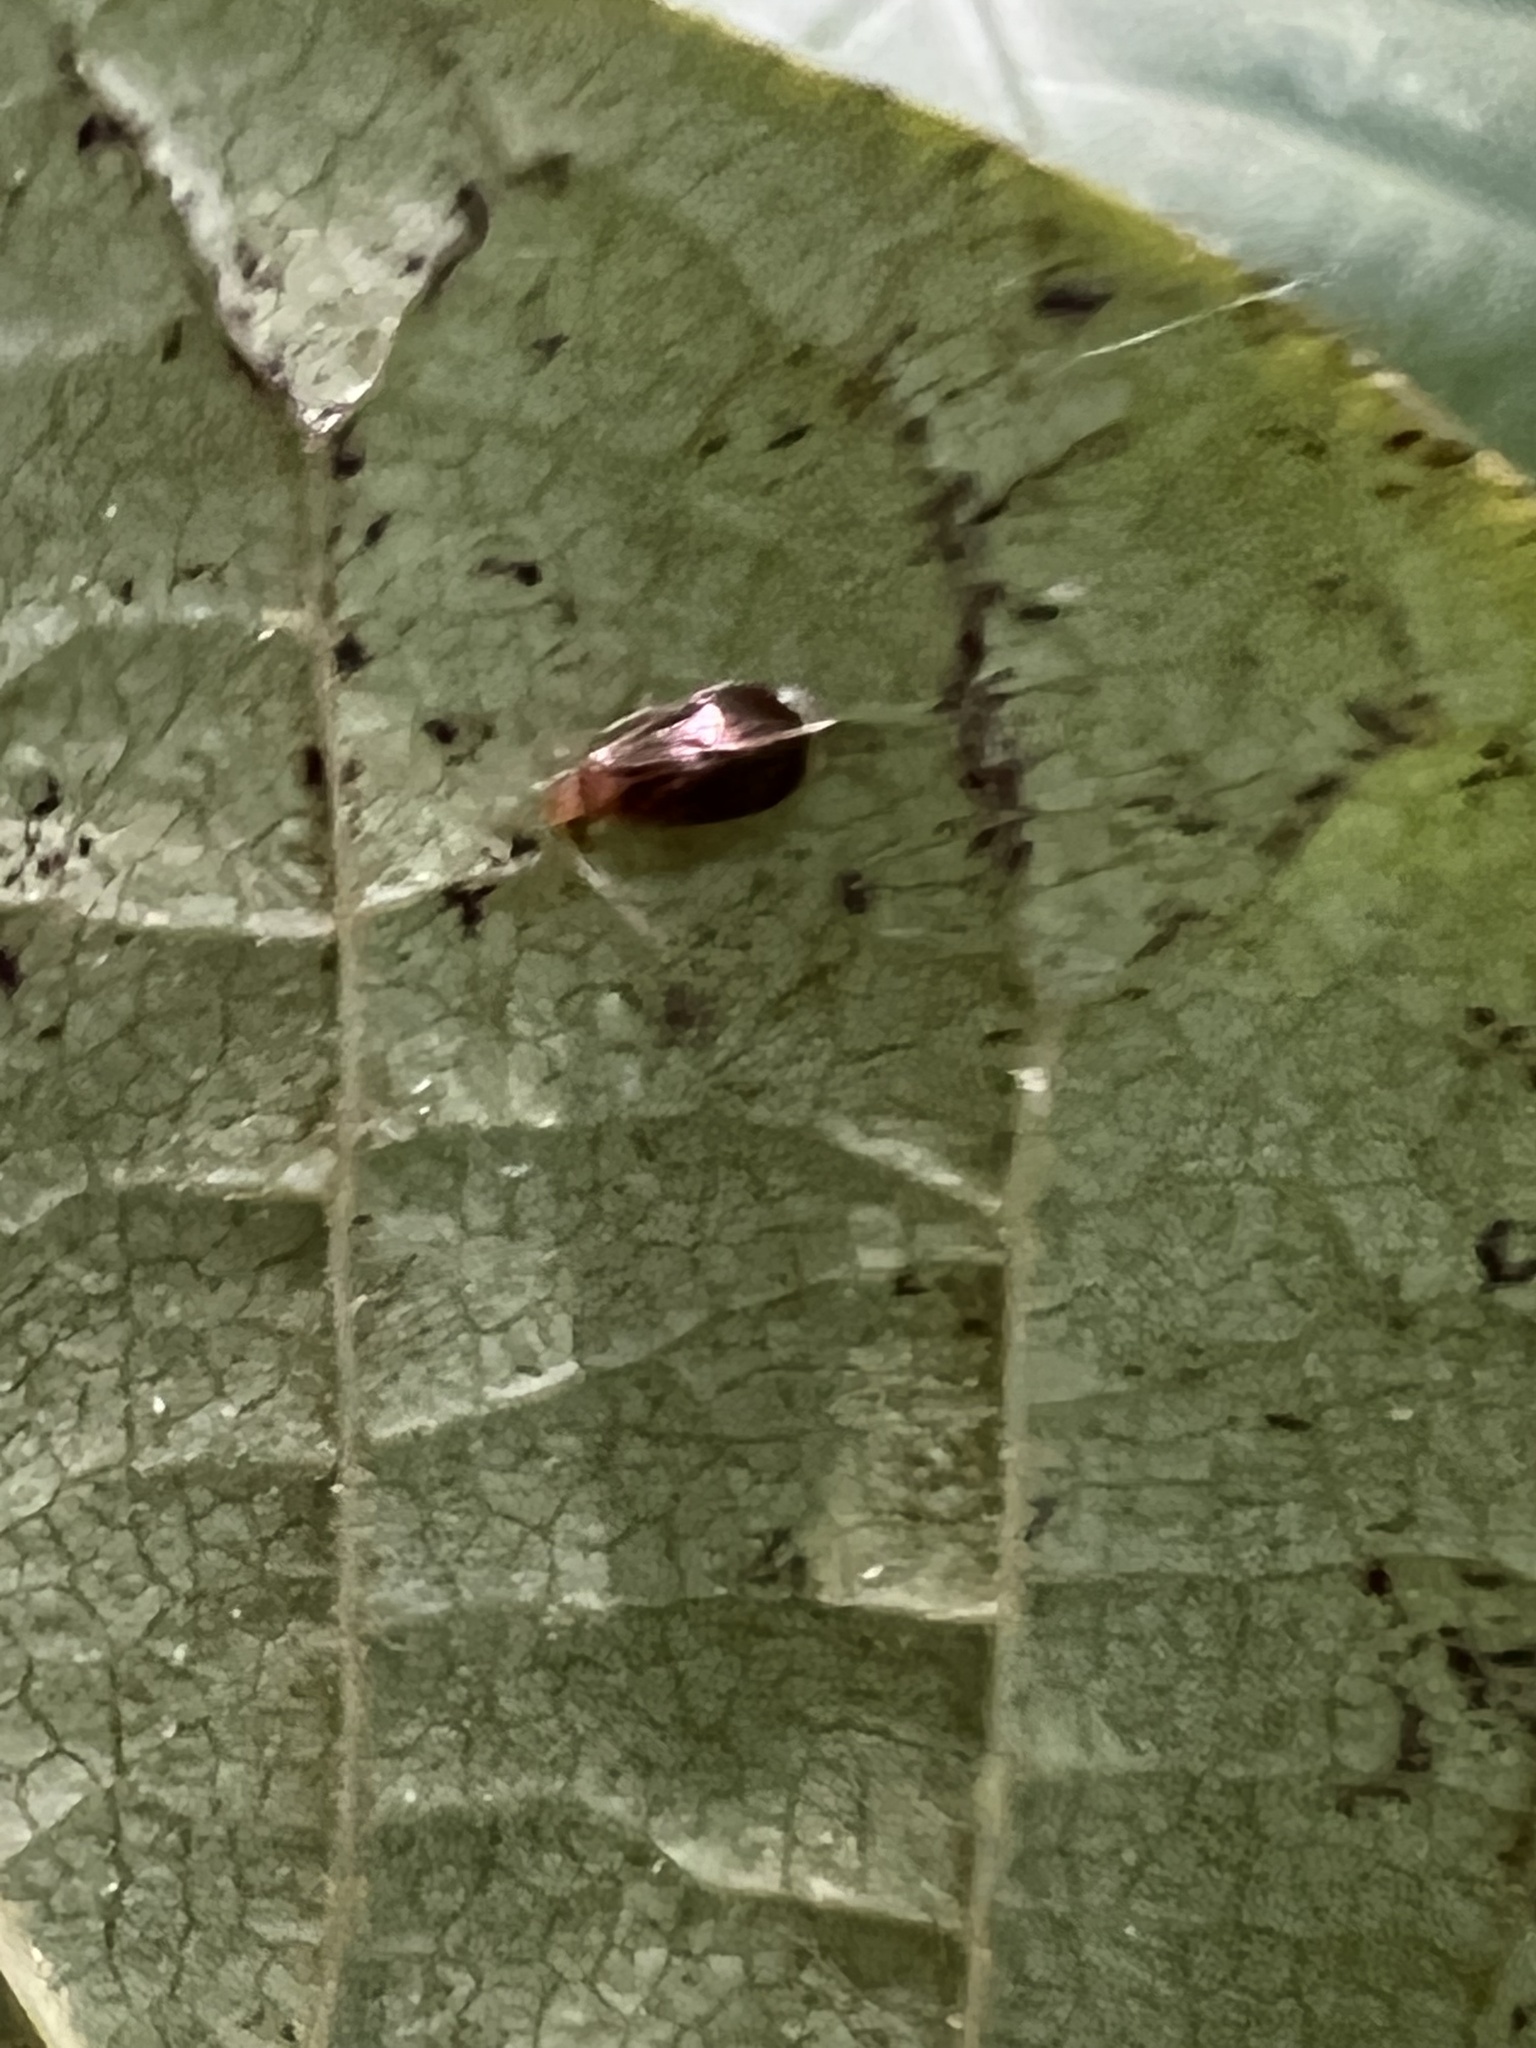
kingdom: Animalia
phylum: Arthropoda
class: Insecta
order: Psocodea
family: Amphipsocidae
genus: Polypsocus
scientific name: Polypsocus corruptus
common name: Corrupt barklouse
